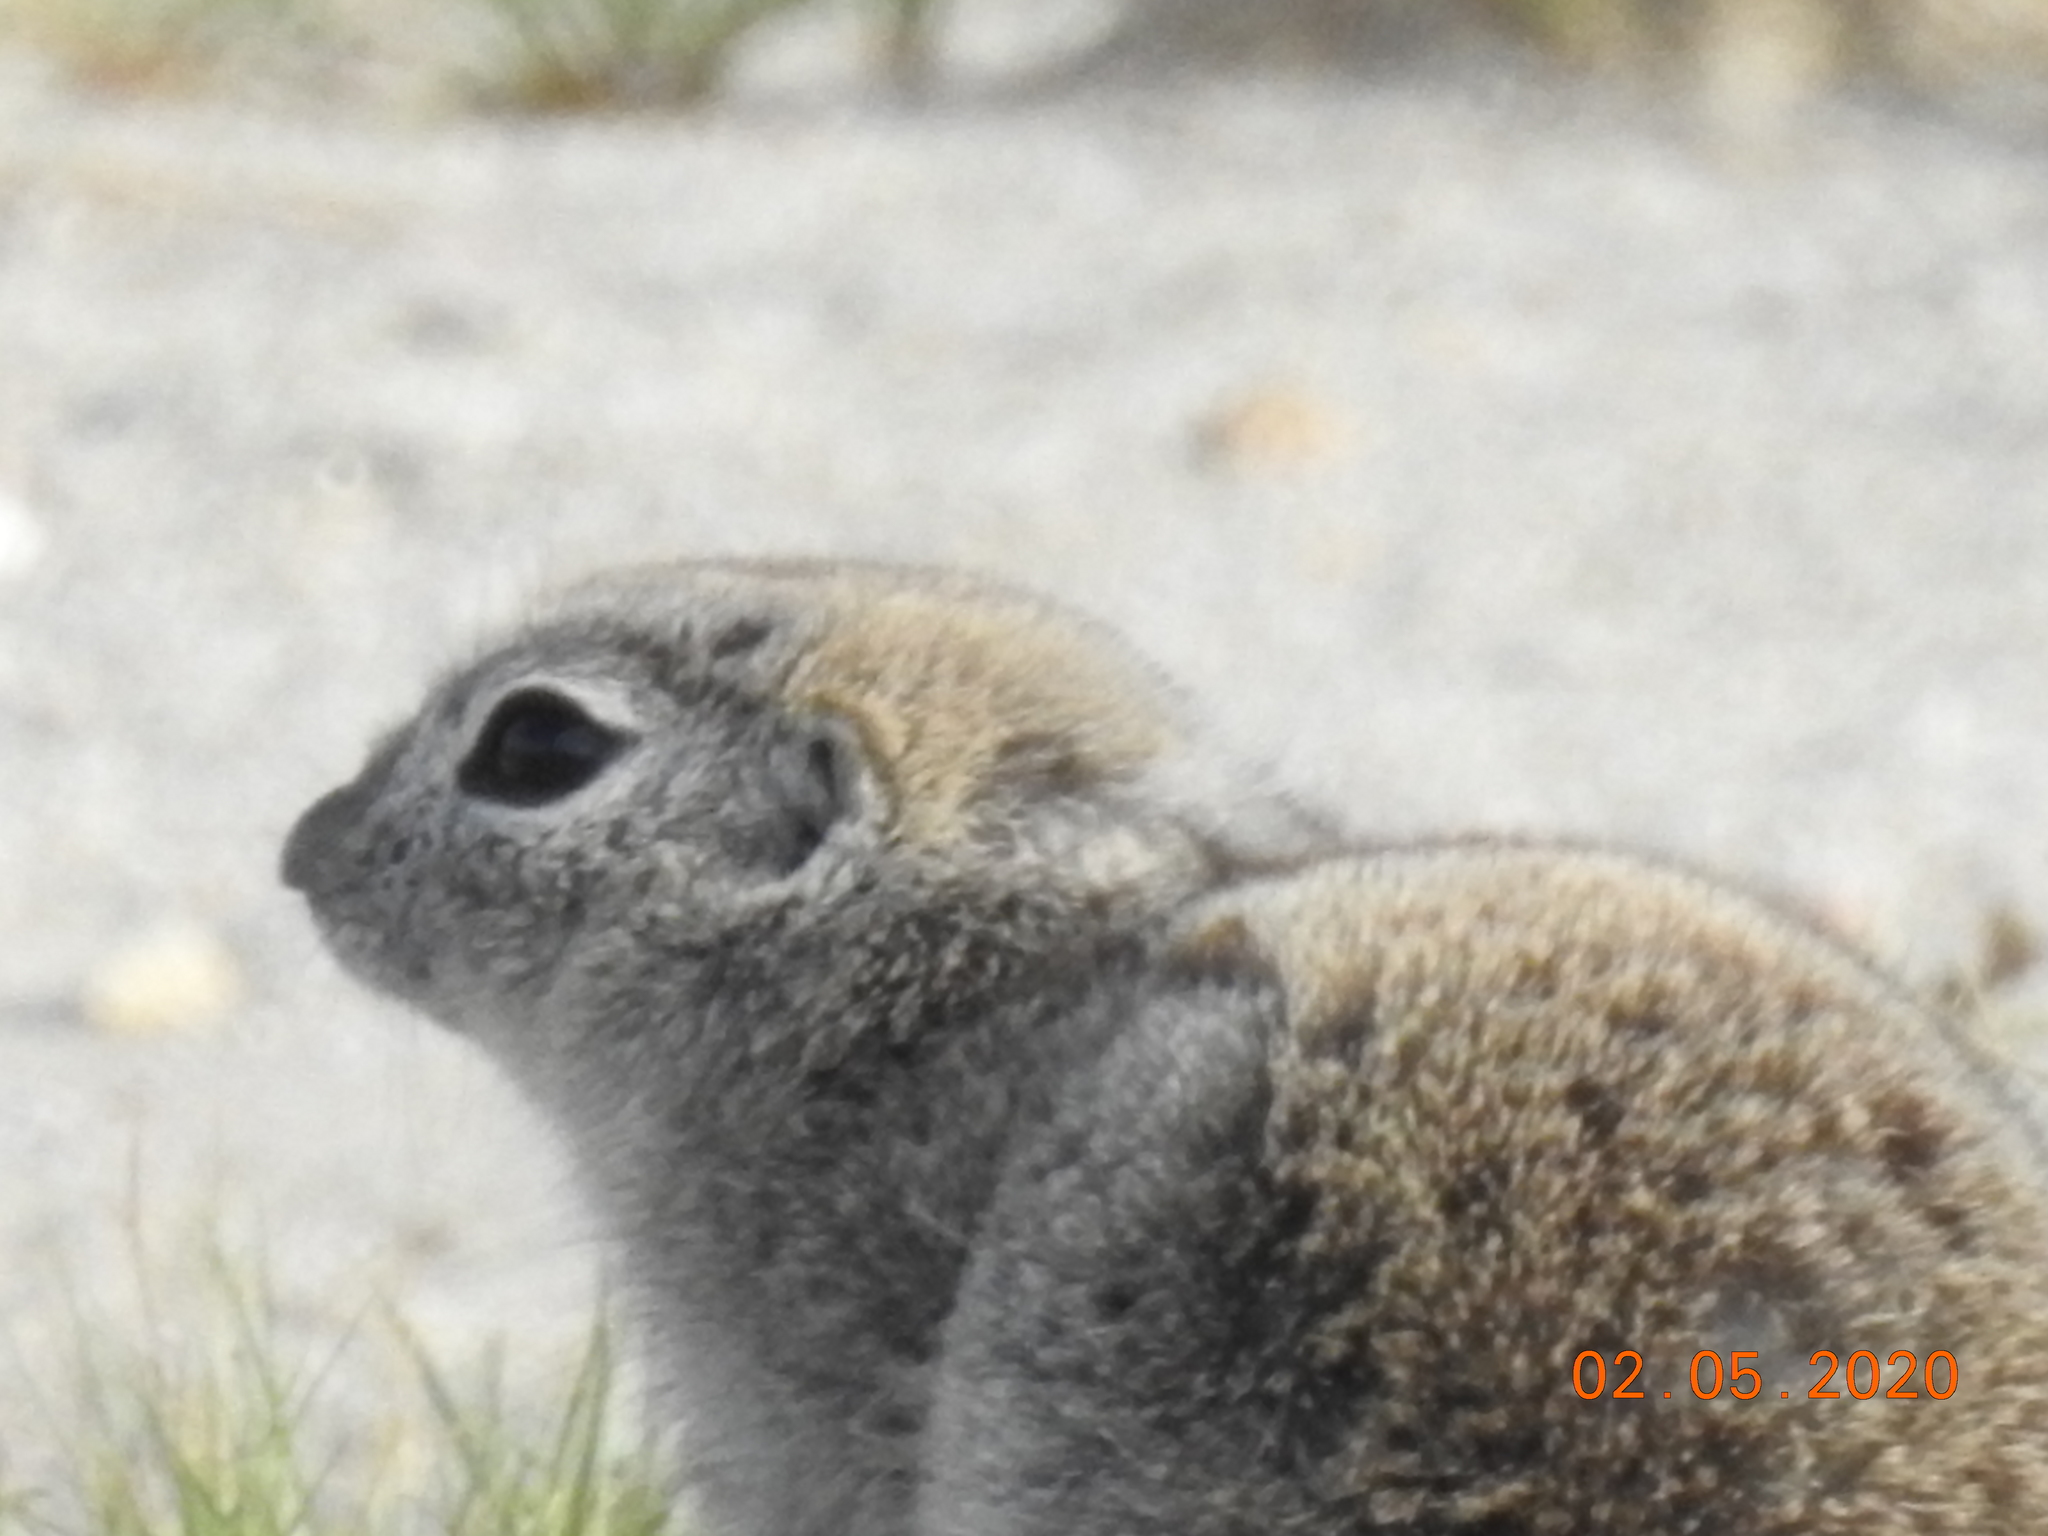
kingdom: Animalia
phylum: Chordata
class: Mammalia
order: Rodentia
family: Sciuridae
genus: Xerospermophilus
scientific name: Xerospermophilus tereticaudus
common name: Round-tailed ground squirrel
